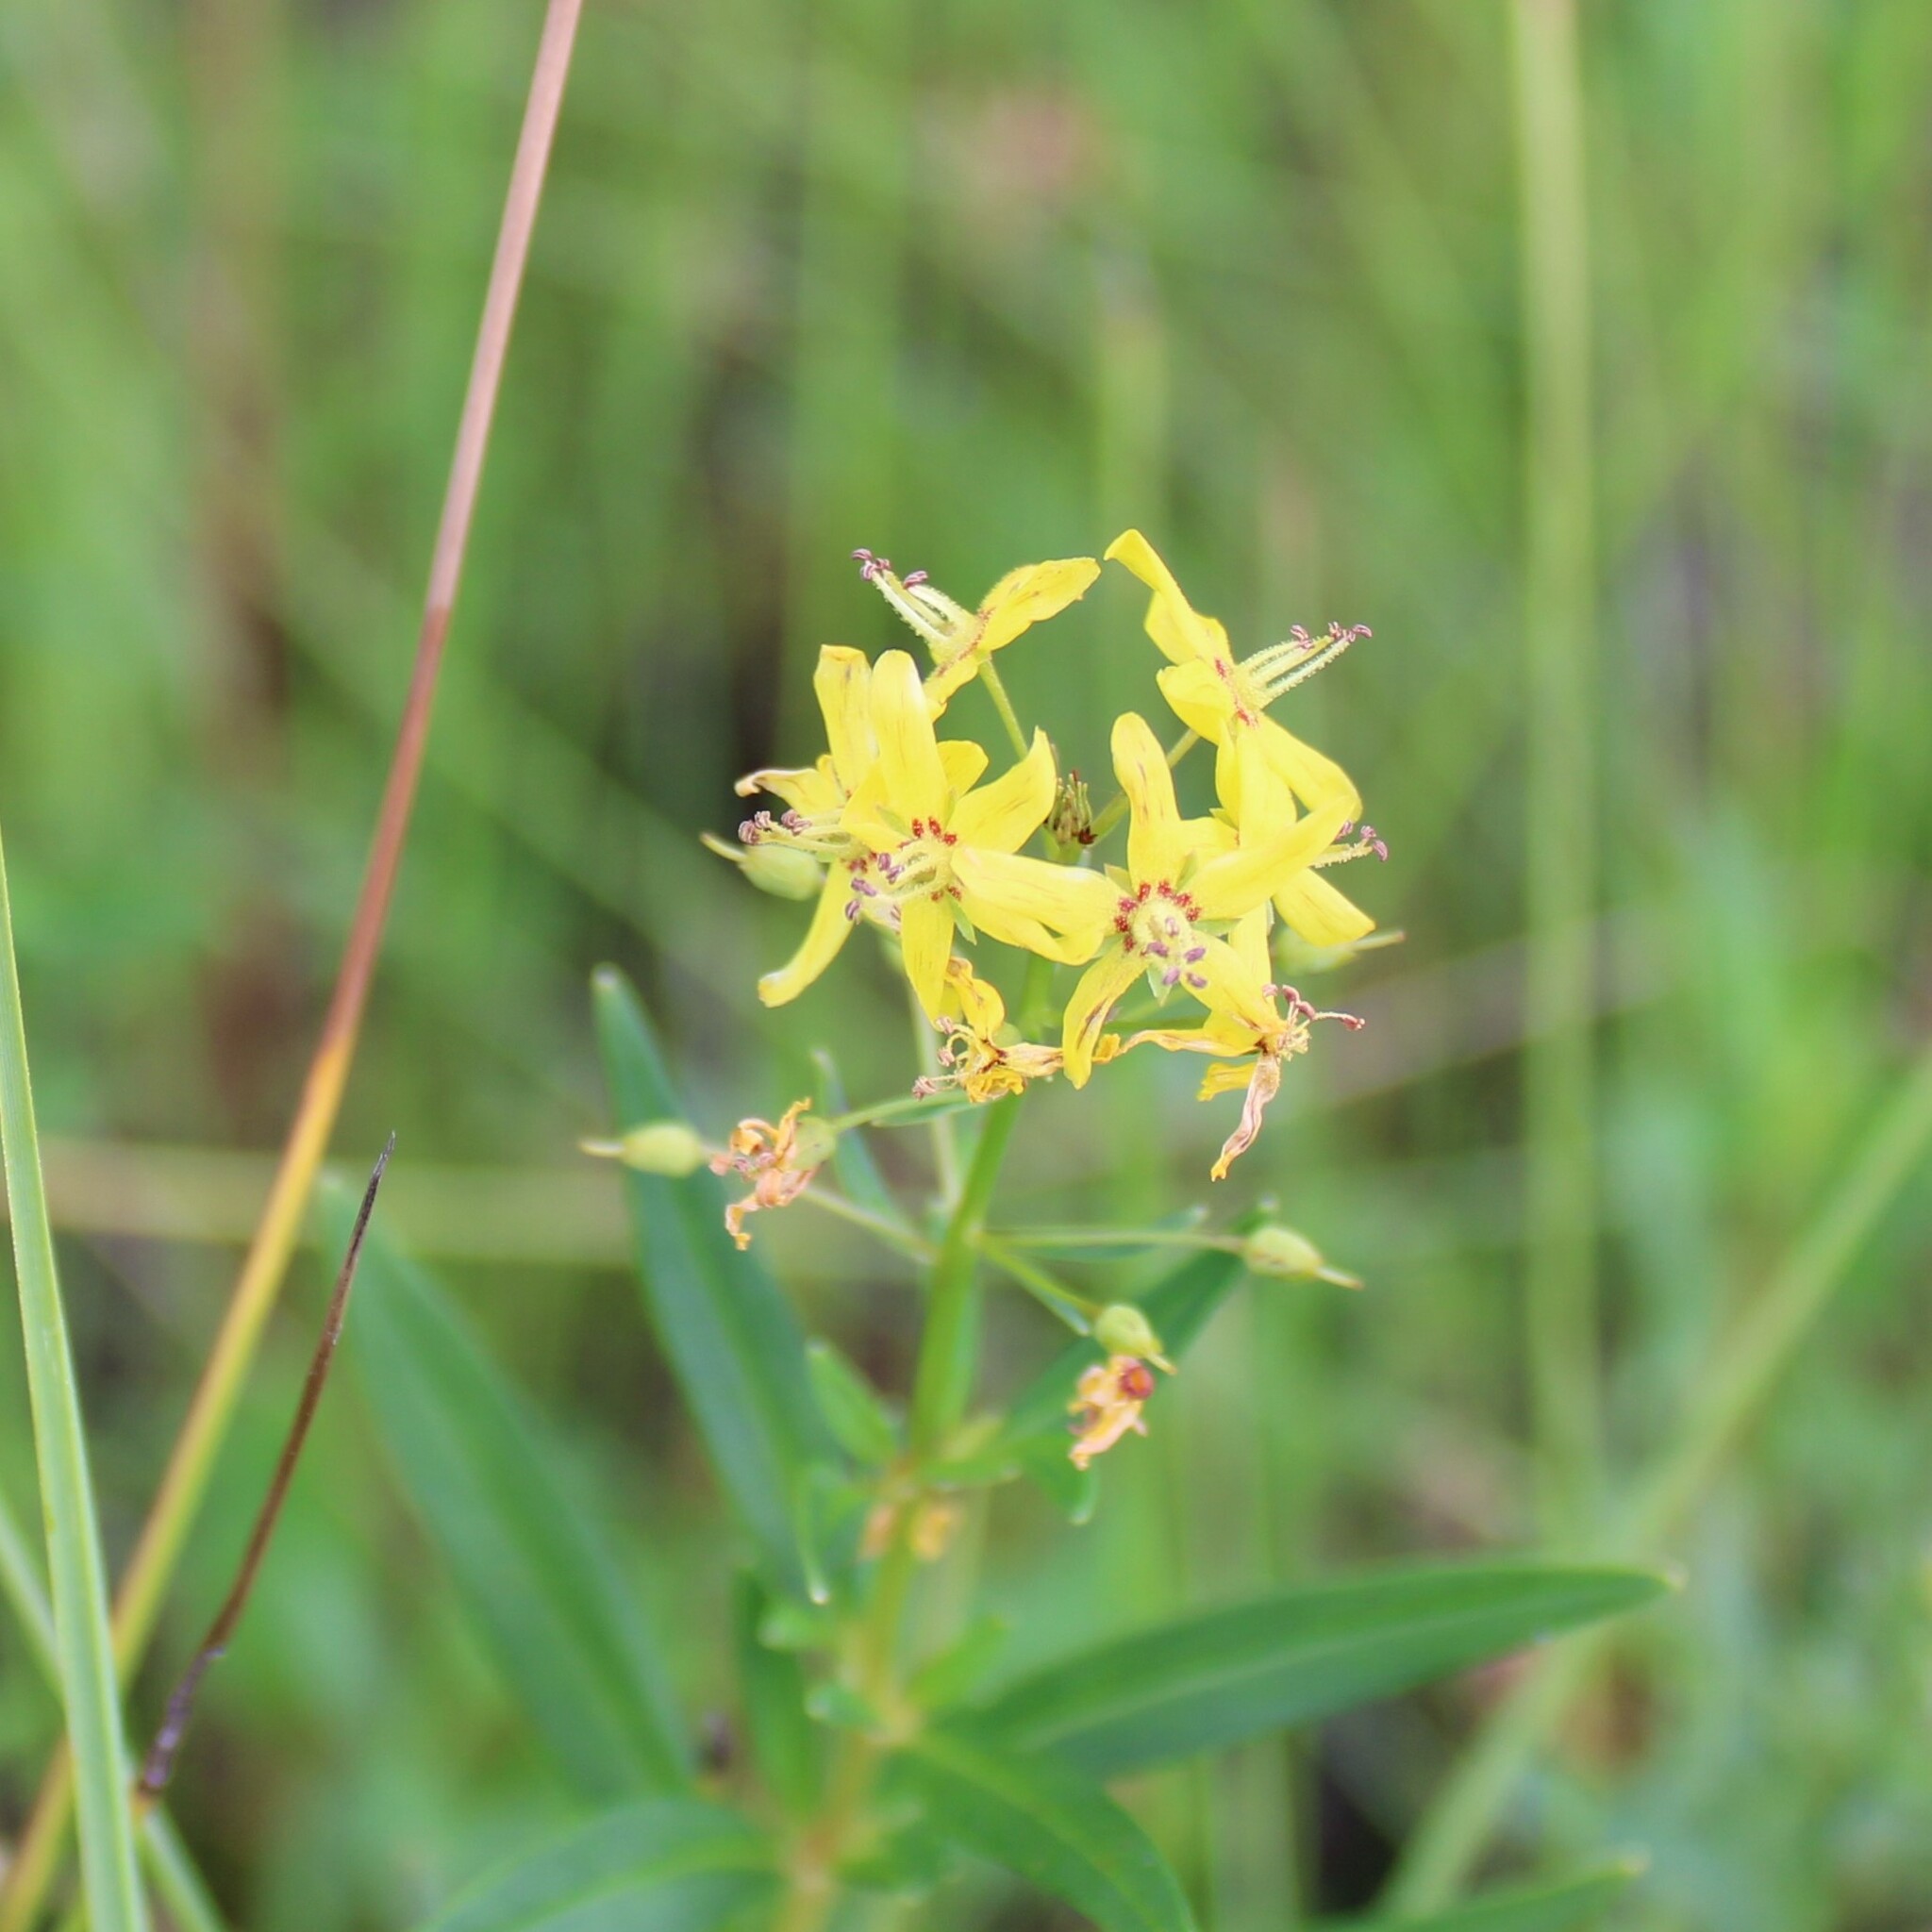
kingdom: Plantae
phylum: Tracheophyta
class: Magnoliopsida
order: Ericales
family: Primulaceae
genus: Lysimachia
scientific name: Lysimachia terrestris
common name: Lake loosestrife
